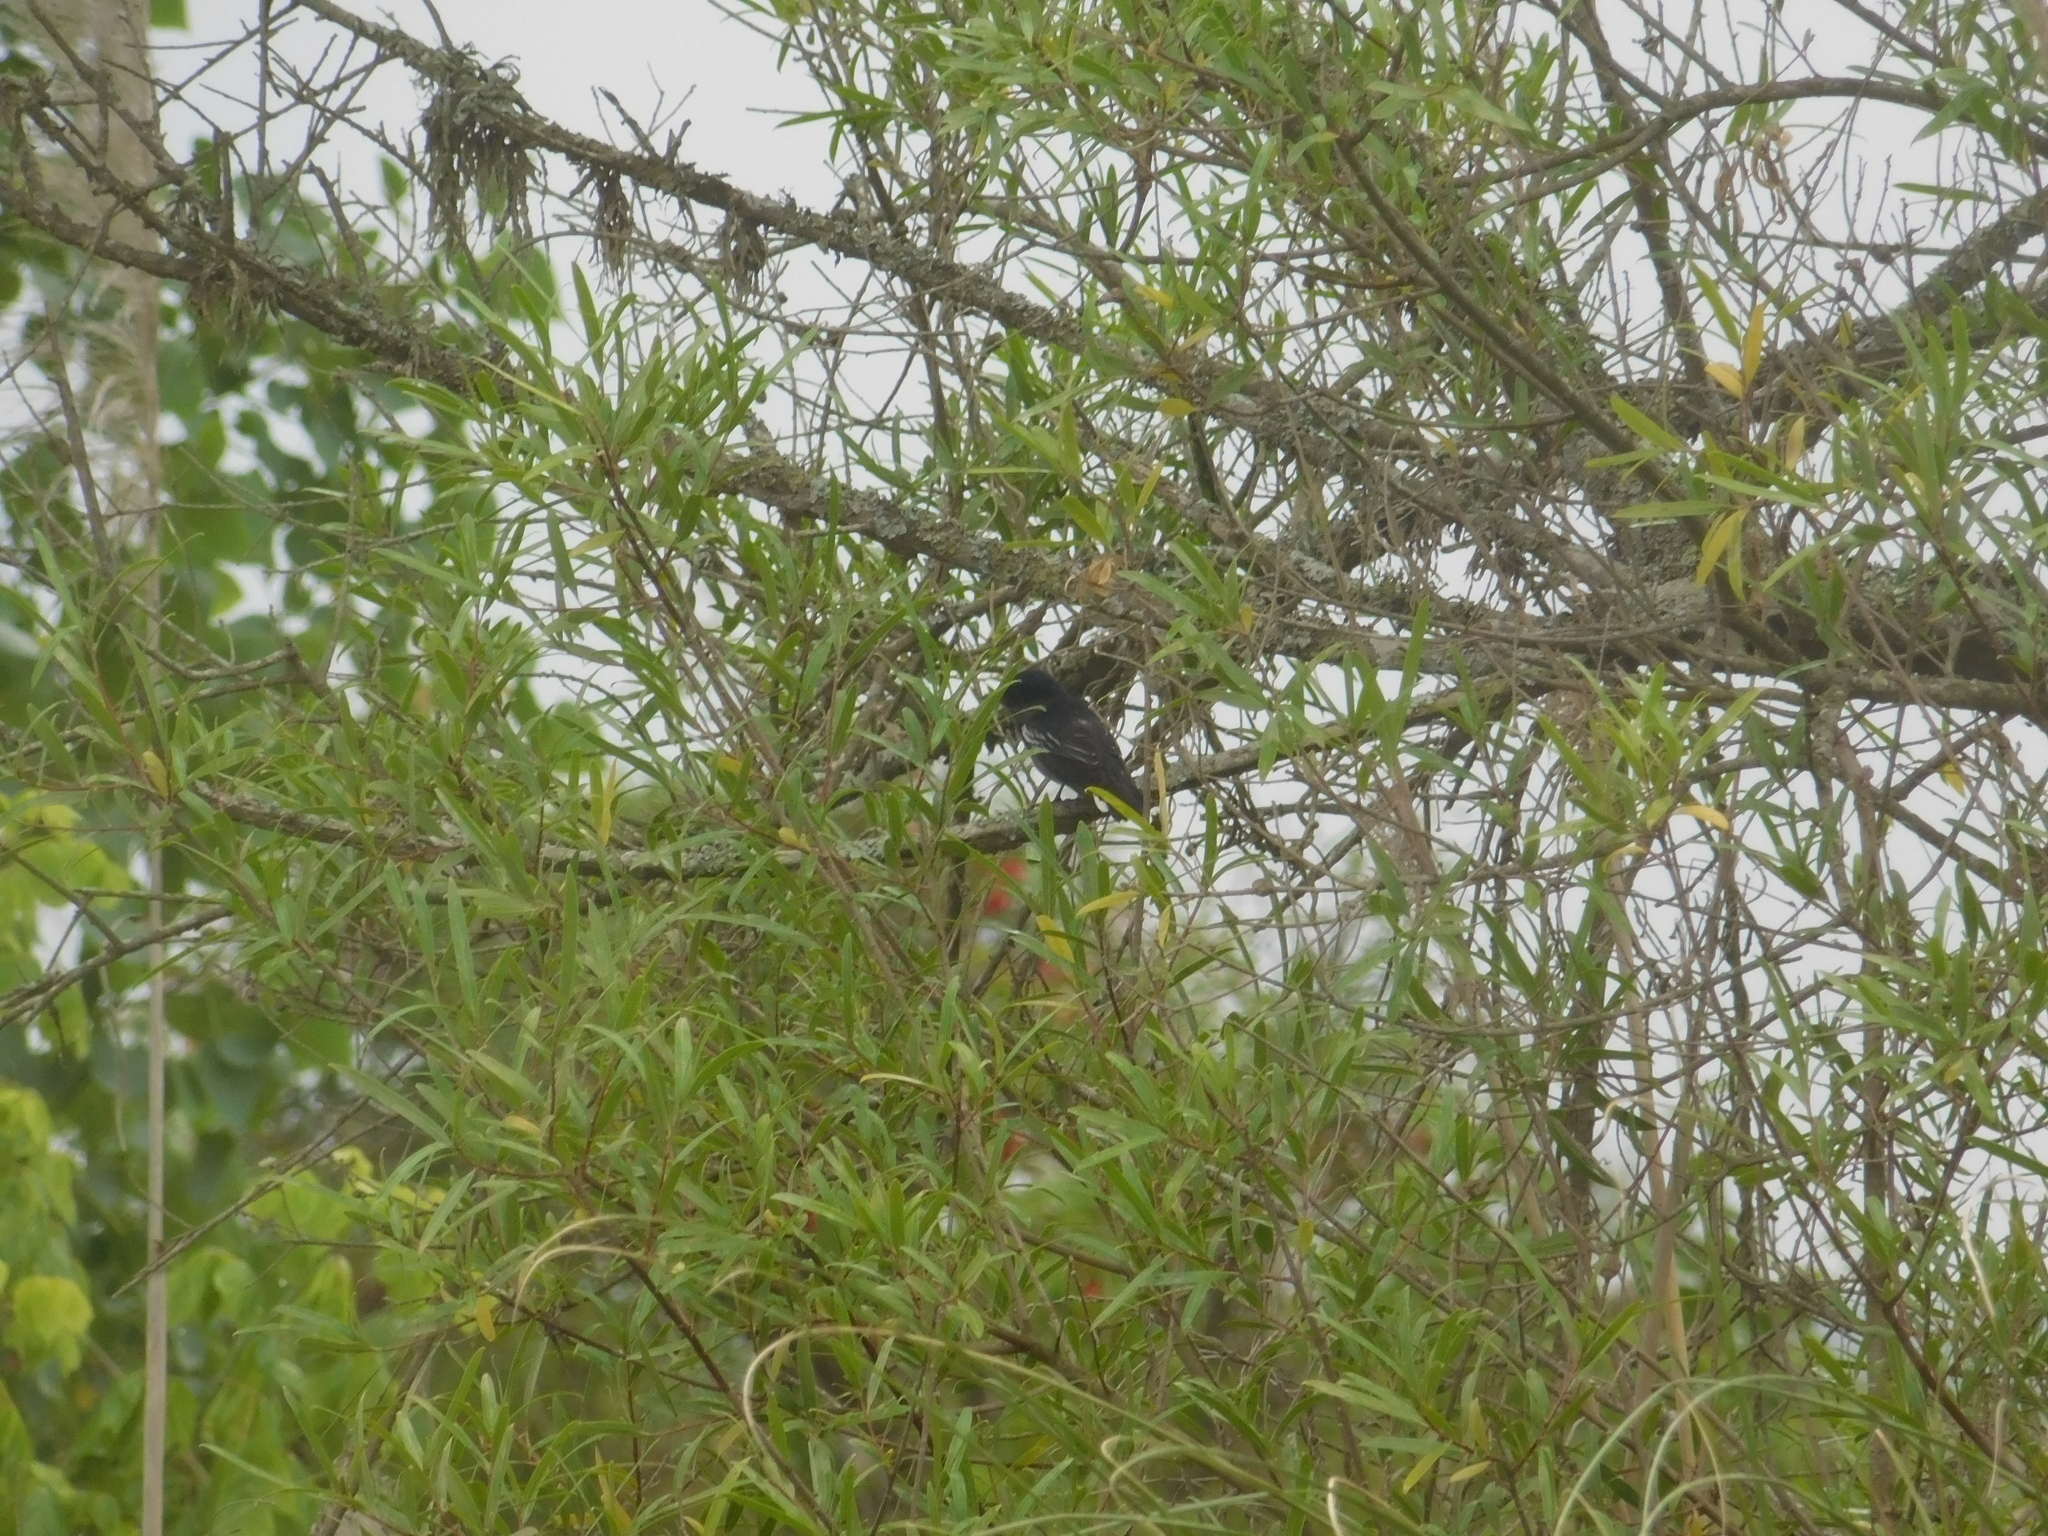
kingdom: Animalia
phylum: Chordata
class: Aves
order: Passeriformes
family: Cotingidae
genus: Pachyramphus
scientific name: Pachyramphus polychopterus
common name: White-winged becard
